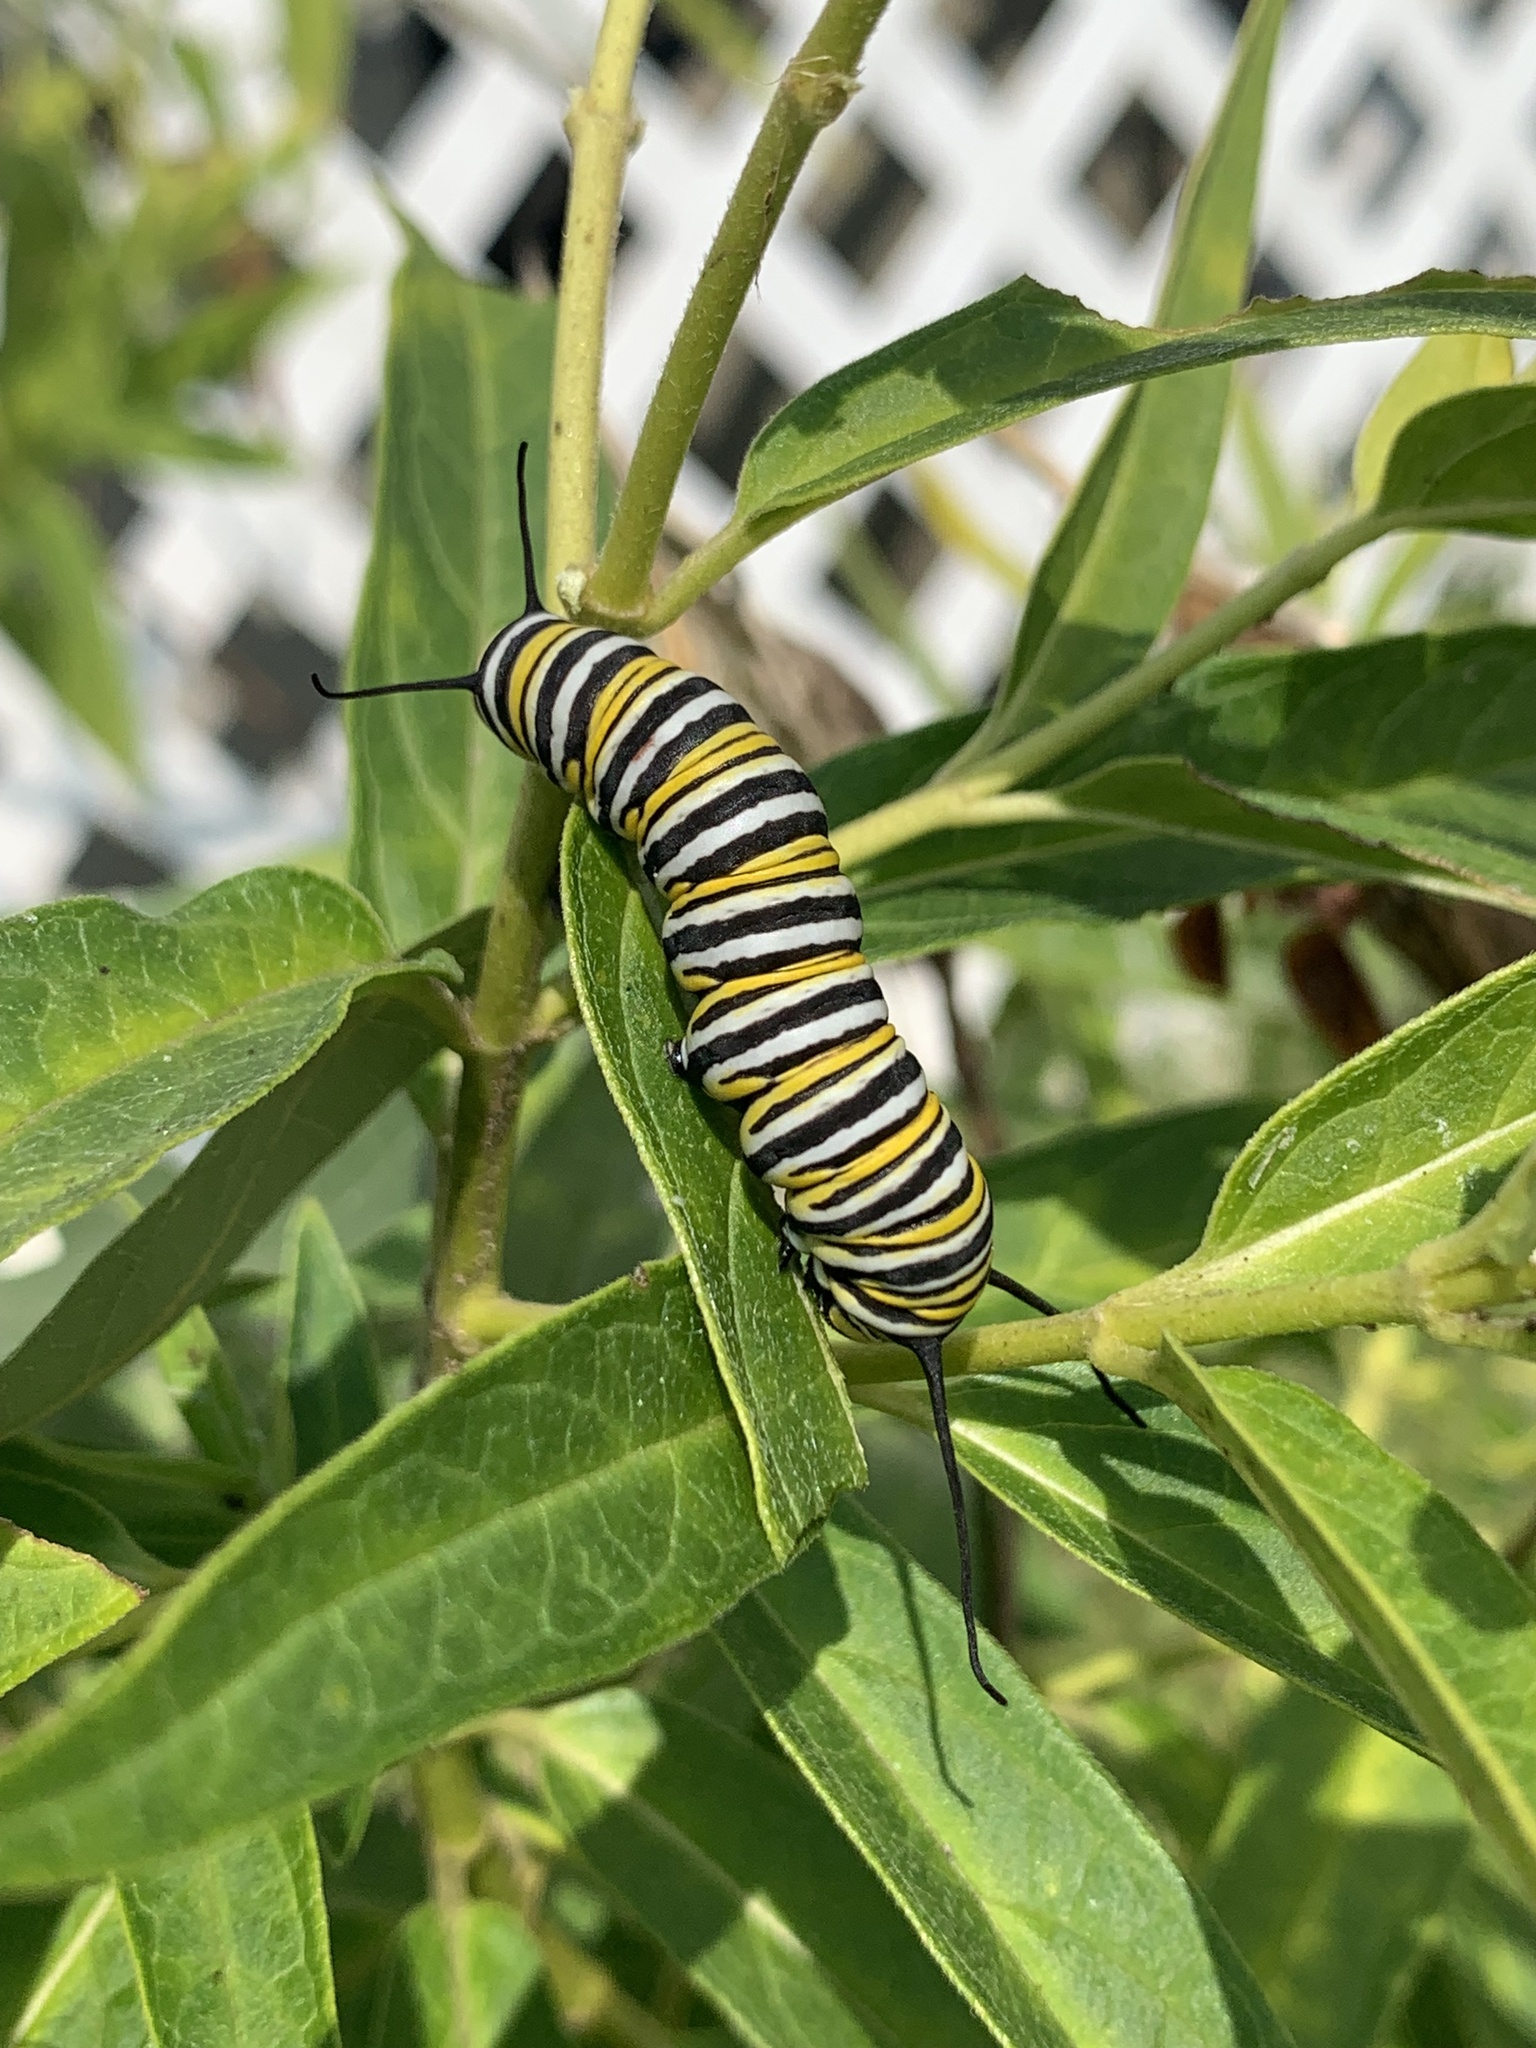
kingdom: Animalia
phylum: Arthropoda
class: Insecta
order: Lepidoptera
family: Nymphalidae
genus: Danaus
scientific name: Danaus plexippus
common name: Monarch
